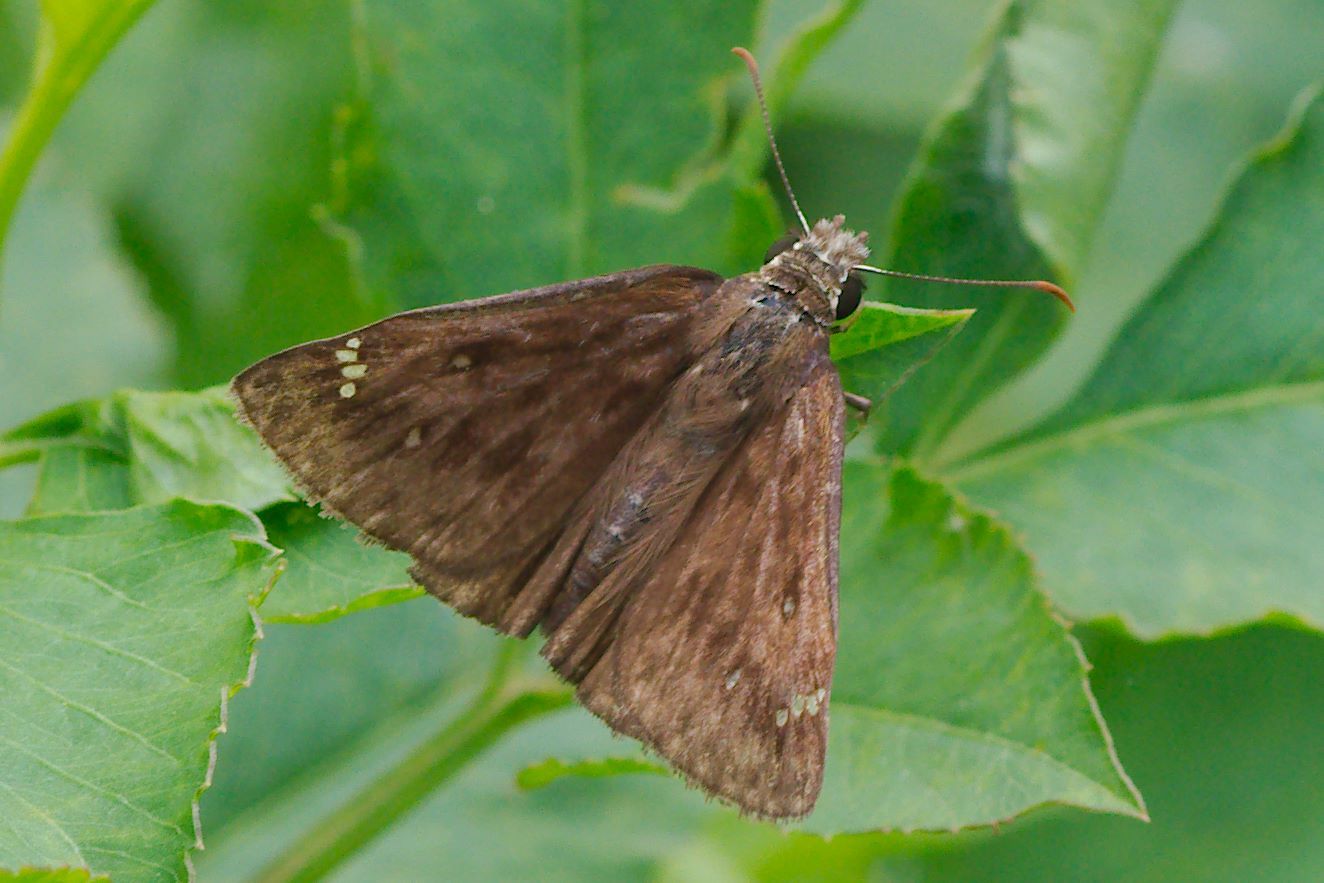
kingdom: Animalia
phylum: Arthropoda
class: Insecta
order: Lepidoptera
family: Hesperiidae
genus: Erynnis
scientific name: Erynnis horatius
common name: Horace's duskywing
